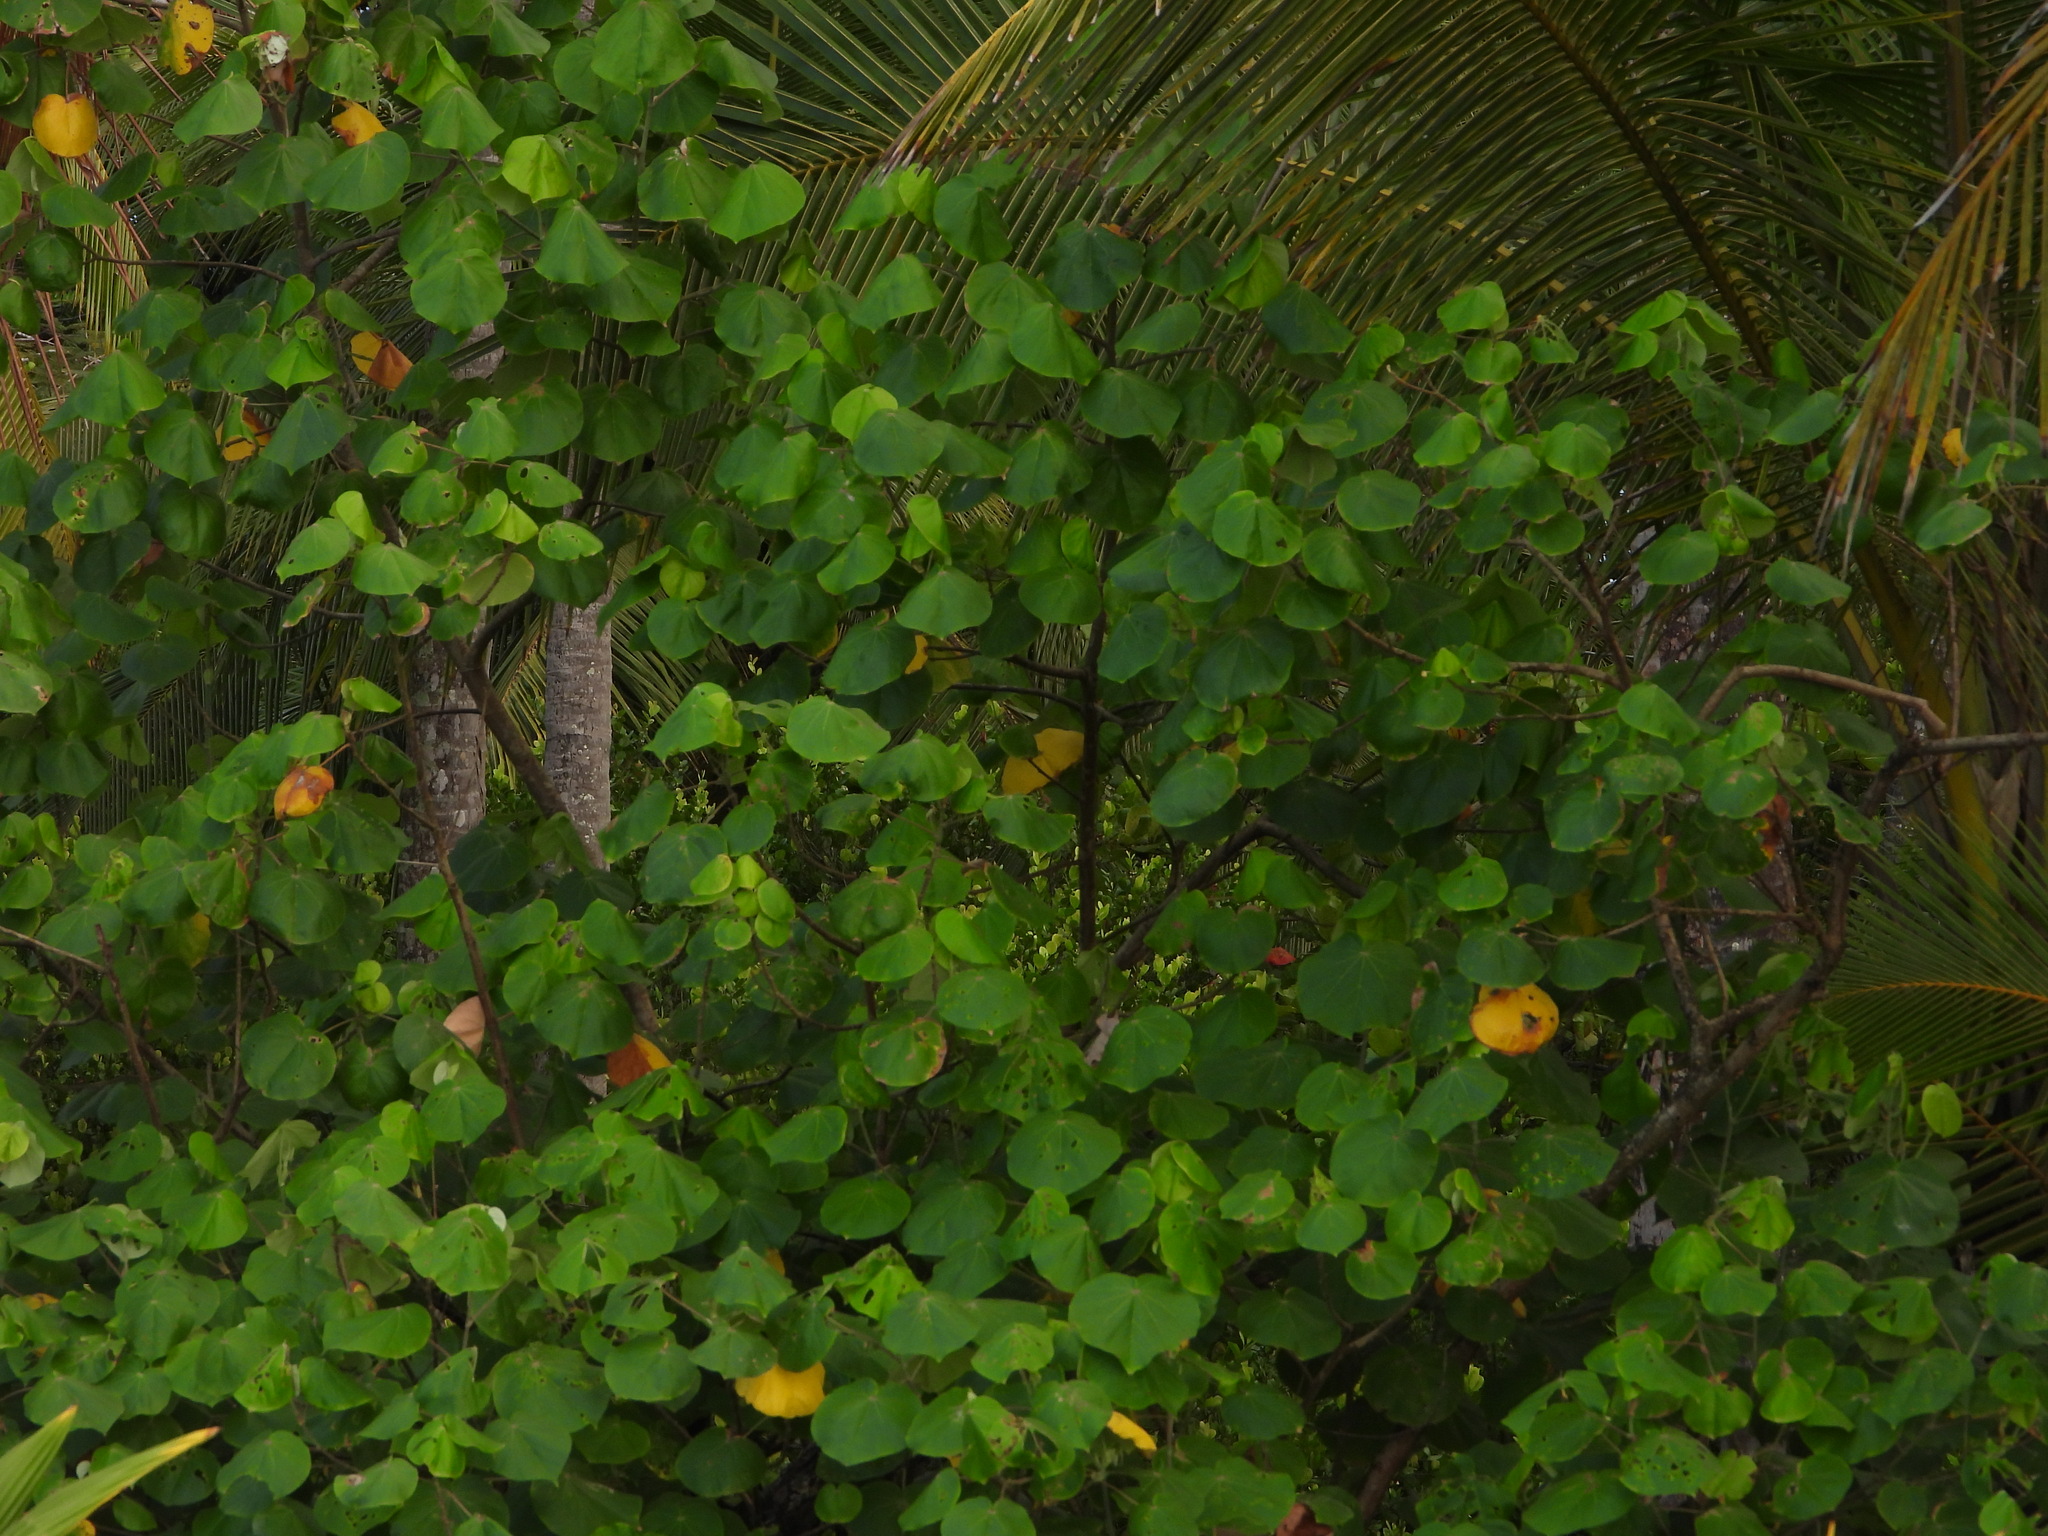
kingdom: Plantae
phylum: Tracheophyta
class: Magnoliopsida
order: Malvales
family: Malvaceae
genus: Talipariti
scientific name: Talipariti tiliaceum
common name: Sea hibiscus
